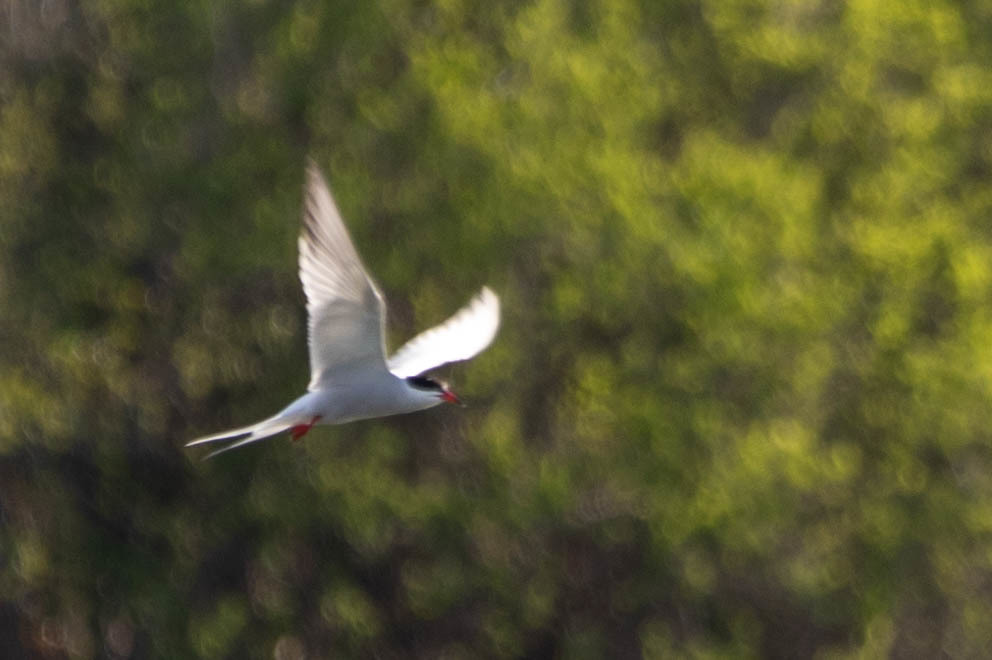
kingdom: Animalia
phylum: Chordata
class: Aves
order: Charadriiformes
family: Laridae
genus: Sterna
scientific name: Sterna hirundo
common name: Common tern
